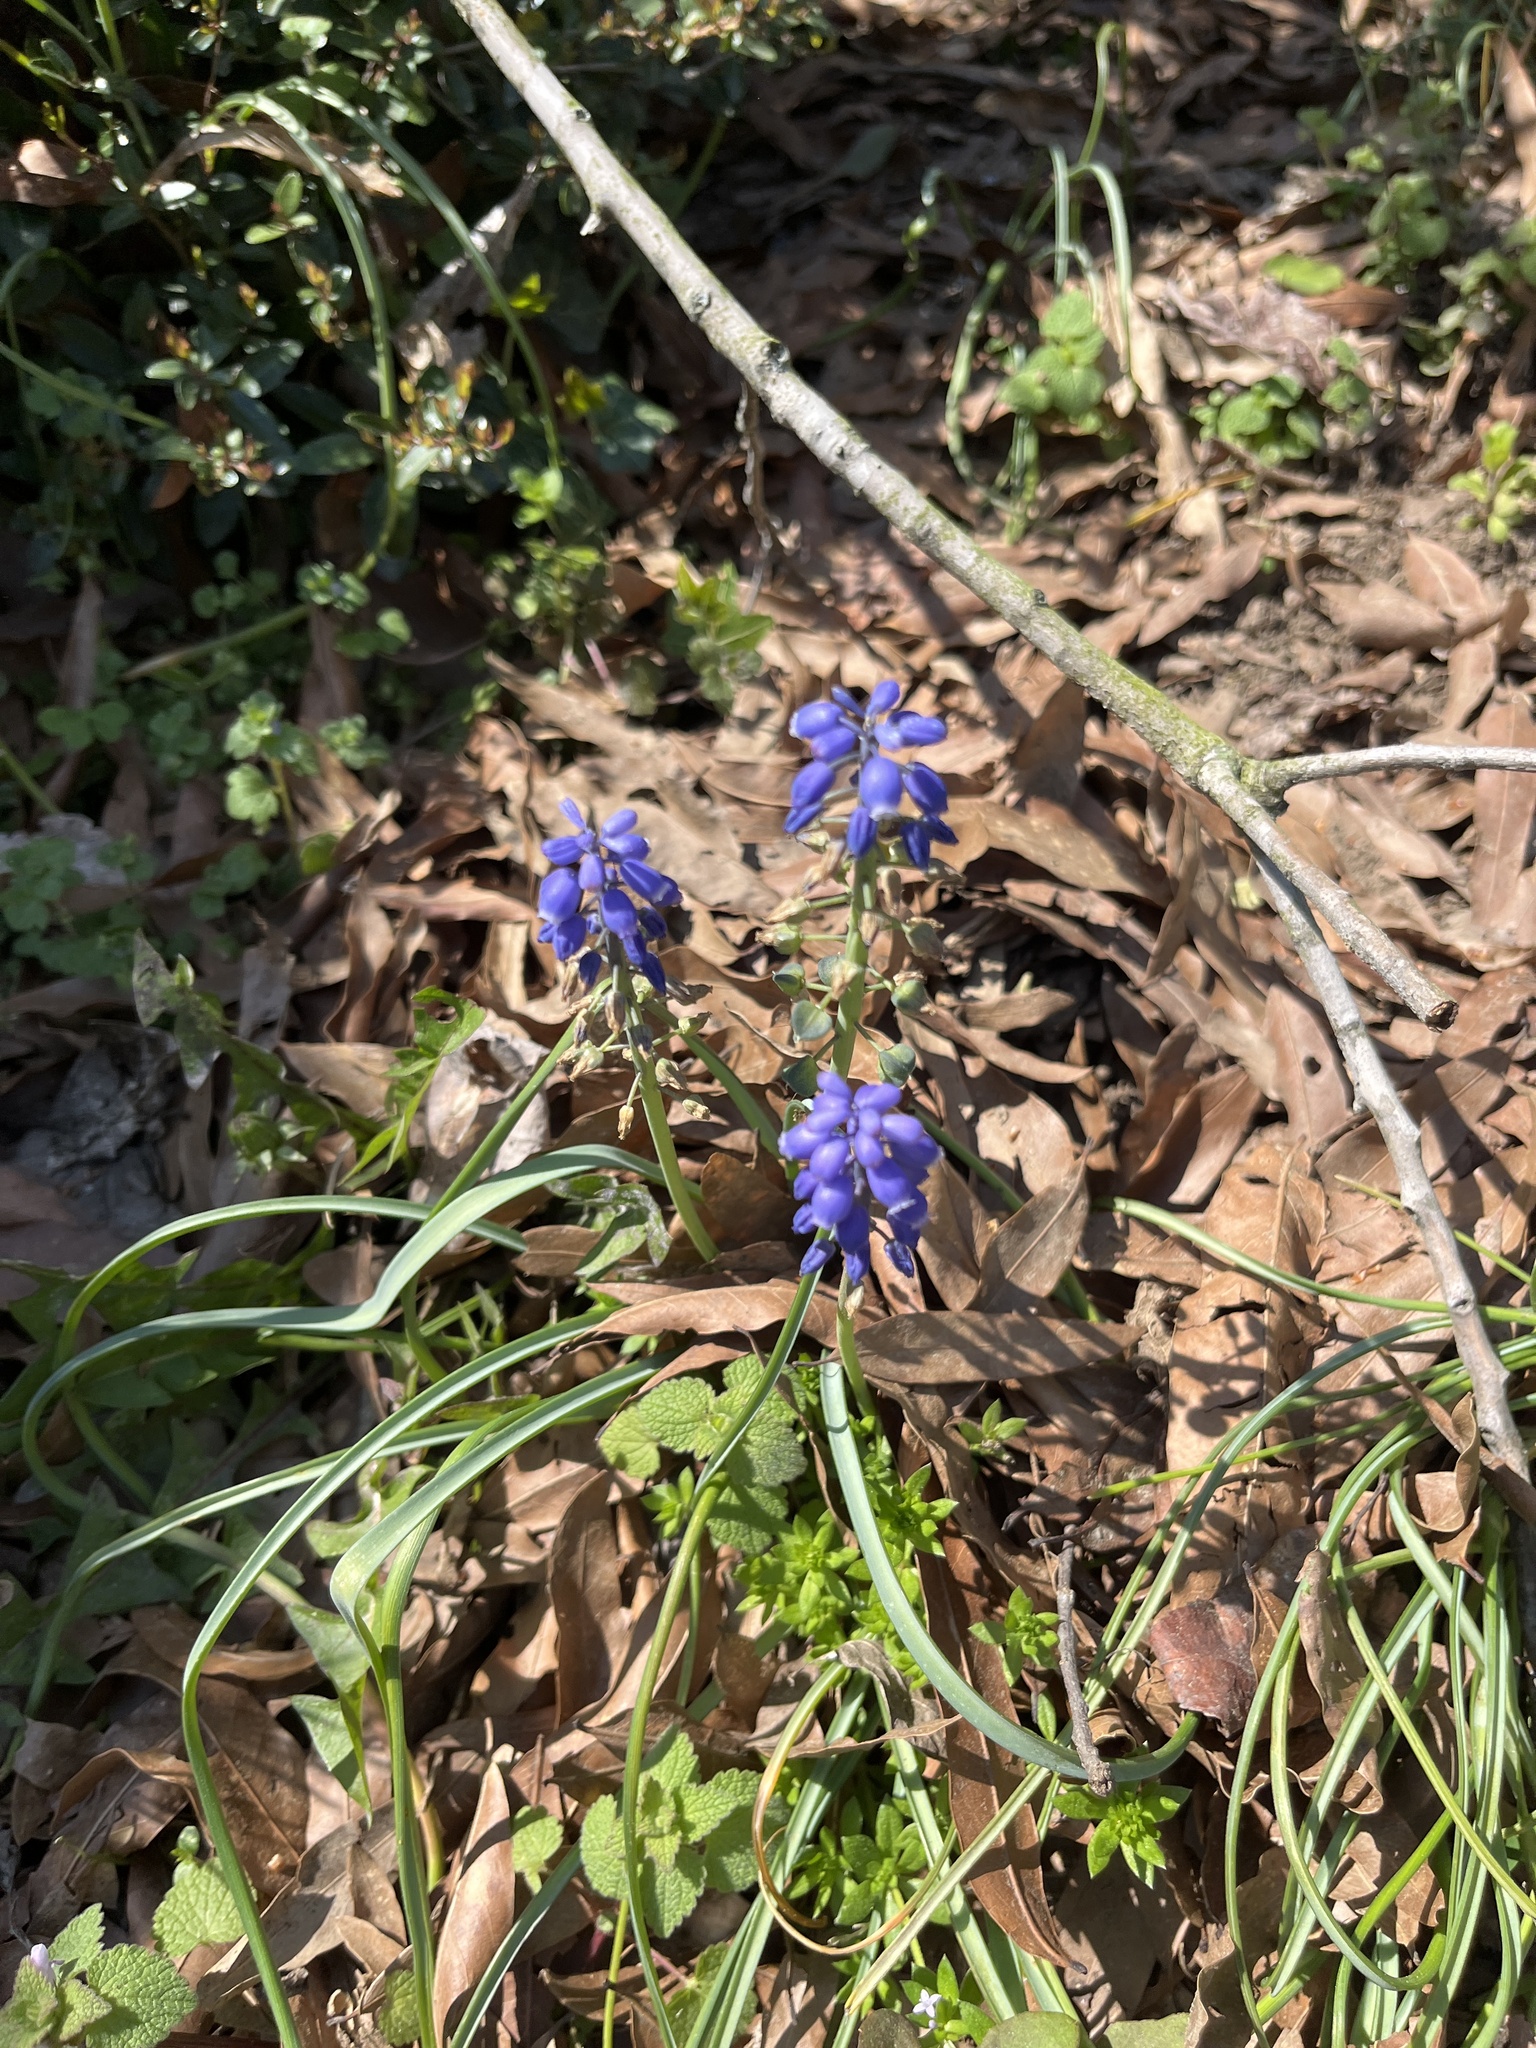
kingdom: Plantae
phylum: Tracheophyta
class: Liliopsida
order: Asparagales
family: Asparagaceae
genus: Muscari
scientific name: Muscari neglectum
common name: Grape-hyacinth
